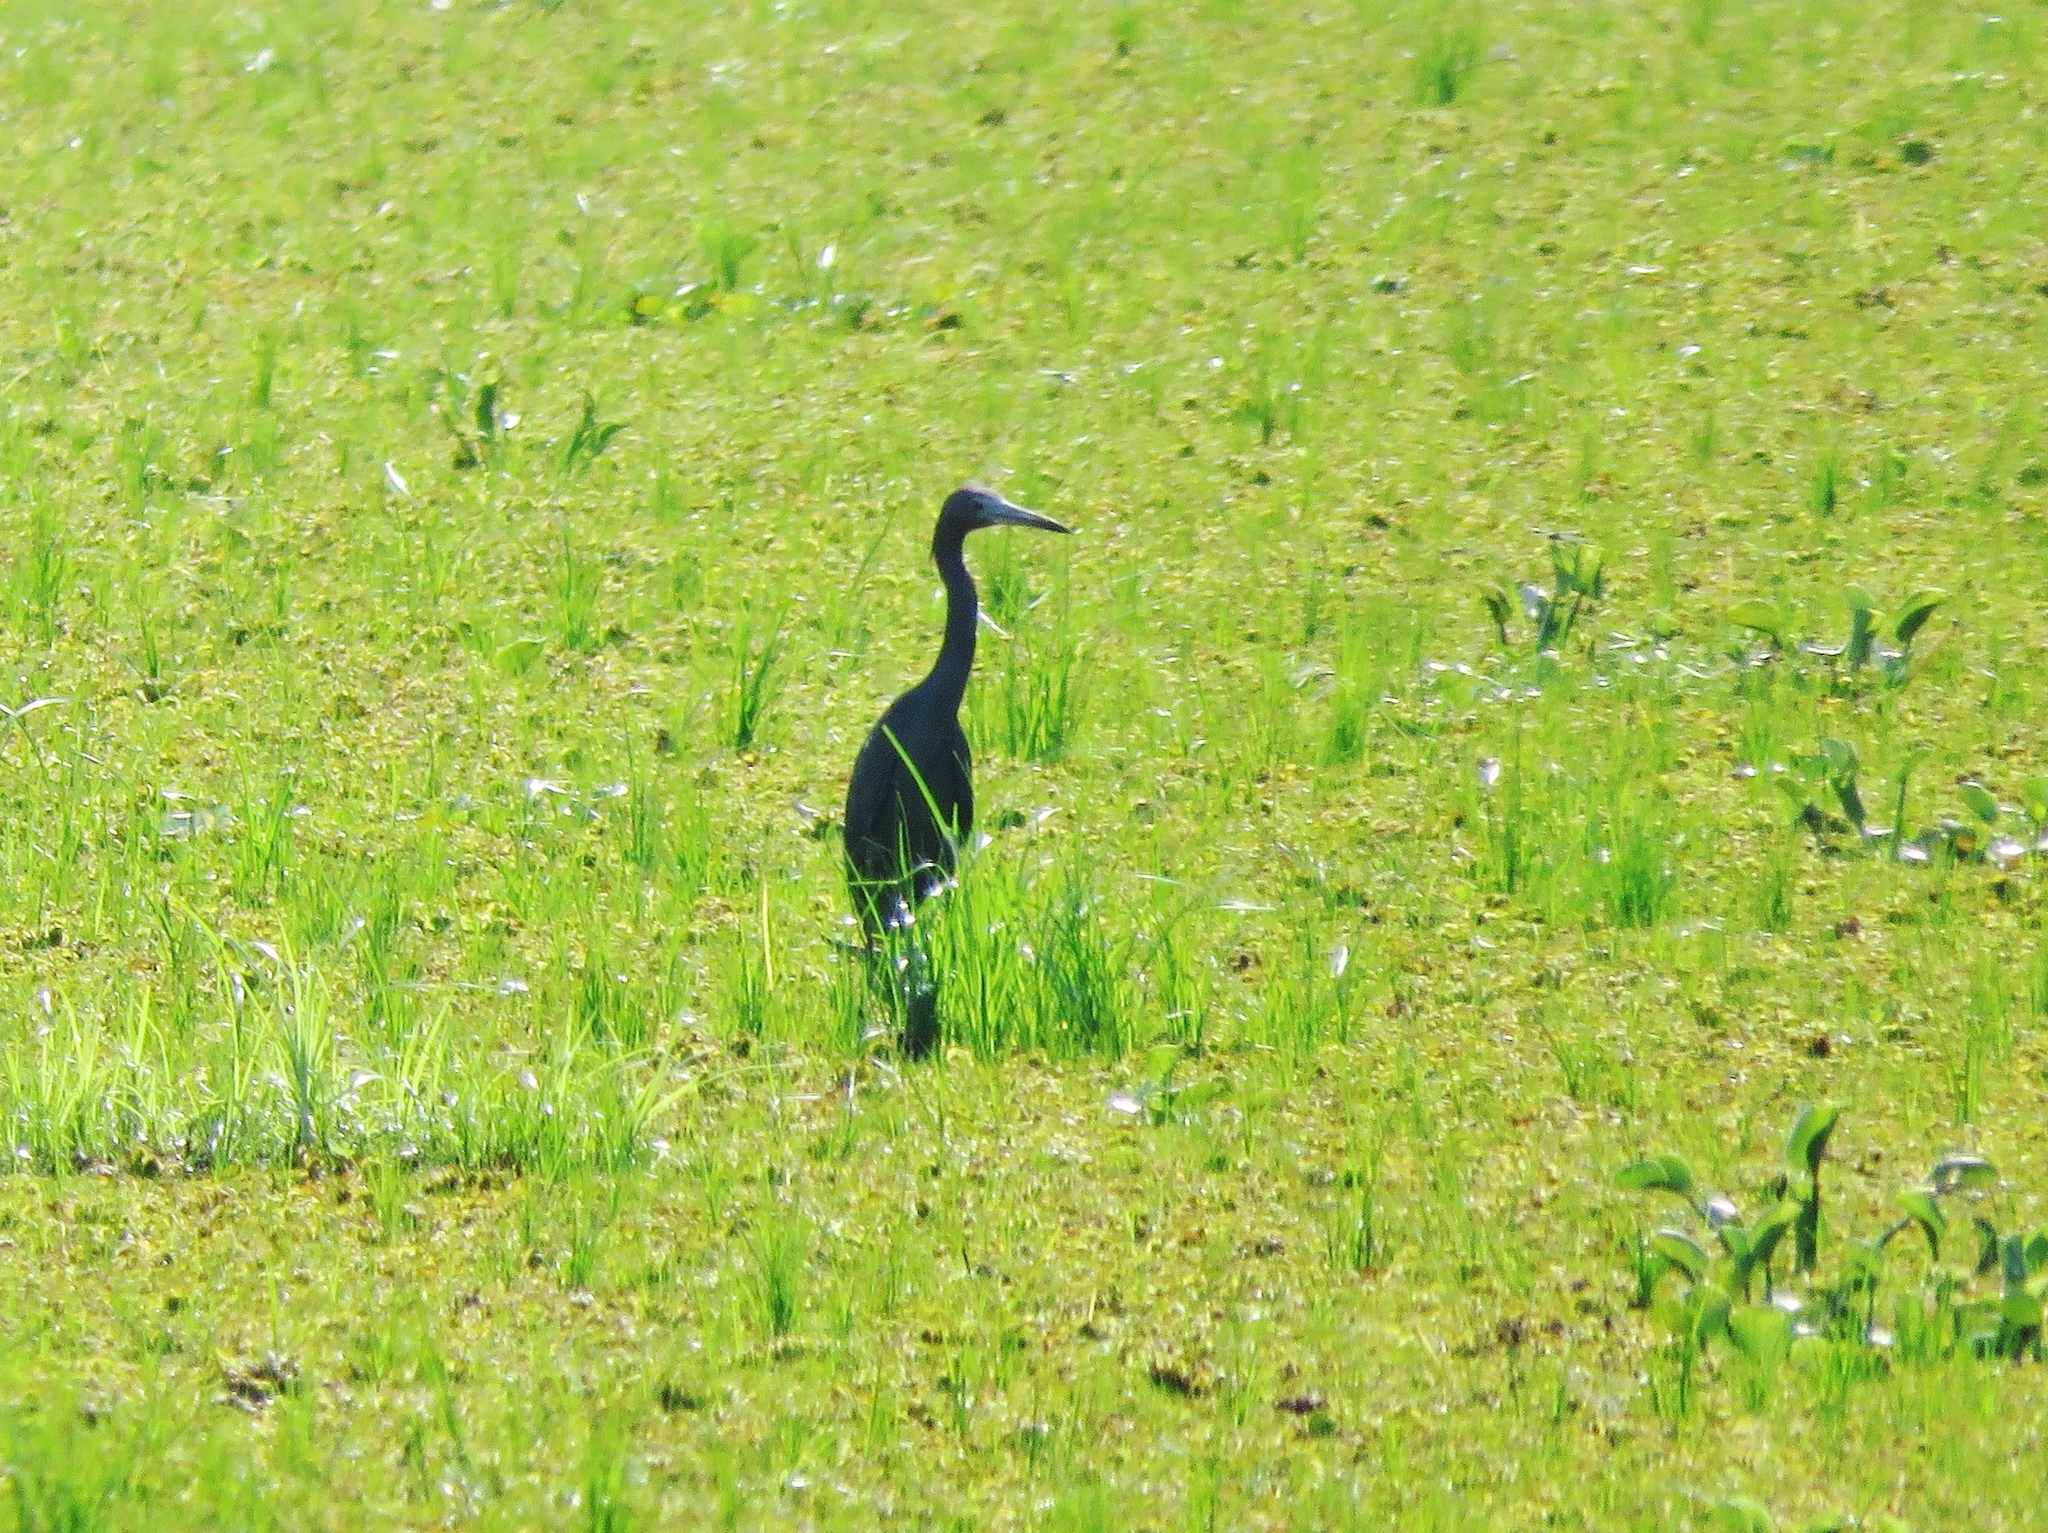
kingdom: Animalia
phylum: Chordata
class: Aves
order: Pelecaniformes
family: Ardeidae
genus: Egretta
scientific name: Egretta caerulea
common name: Little blue heron
